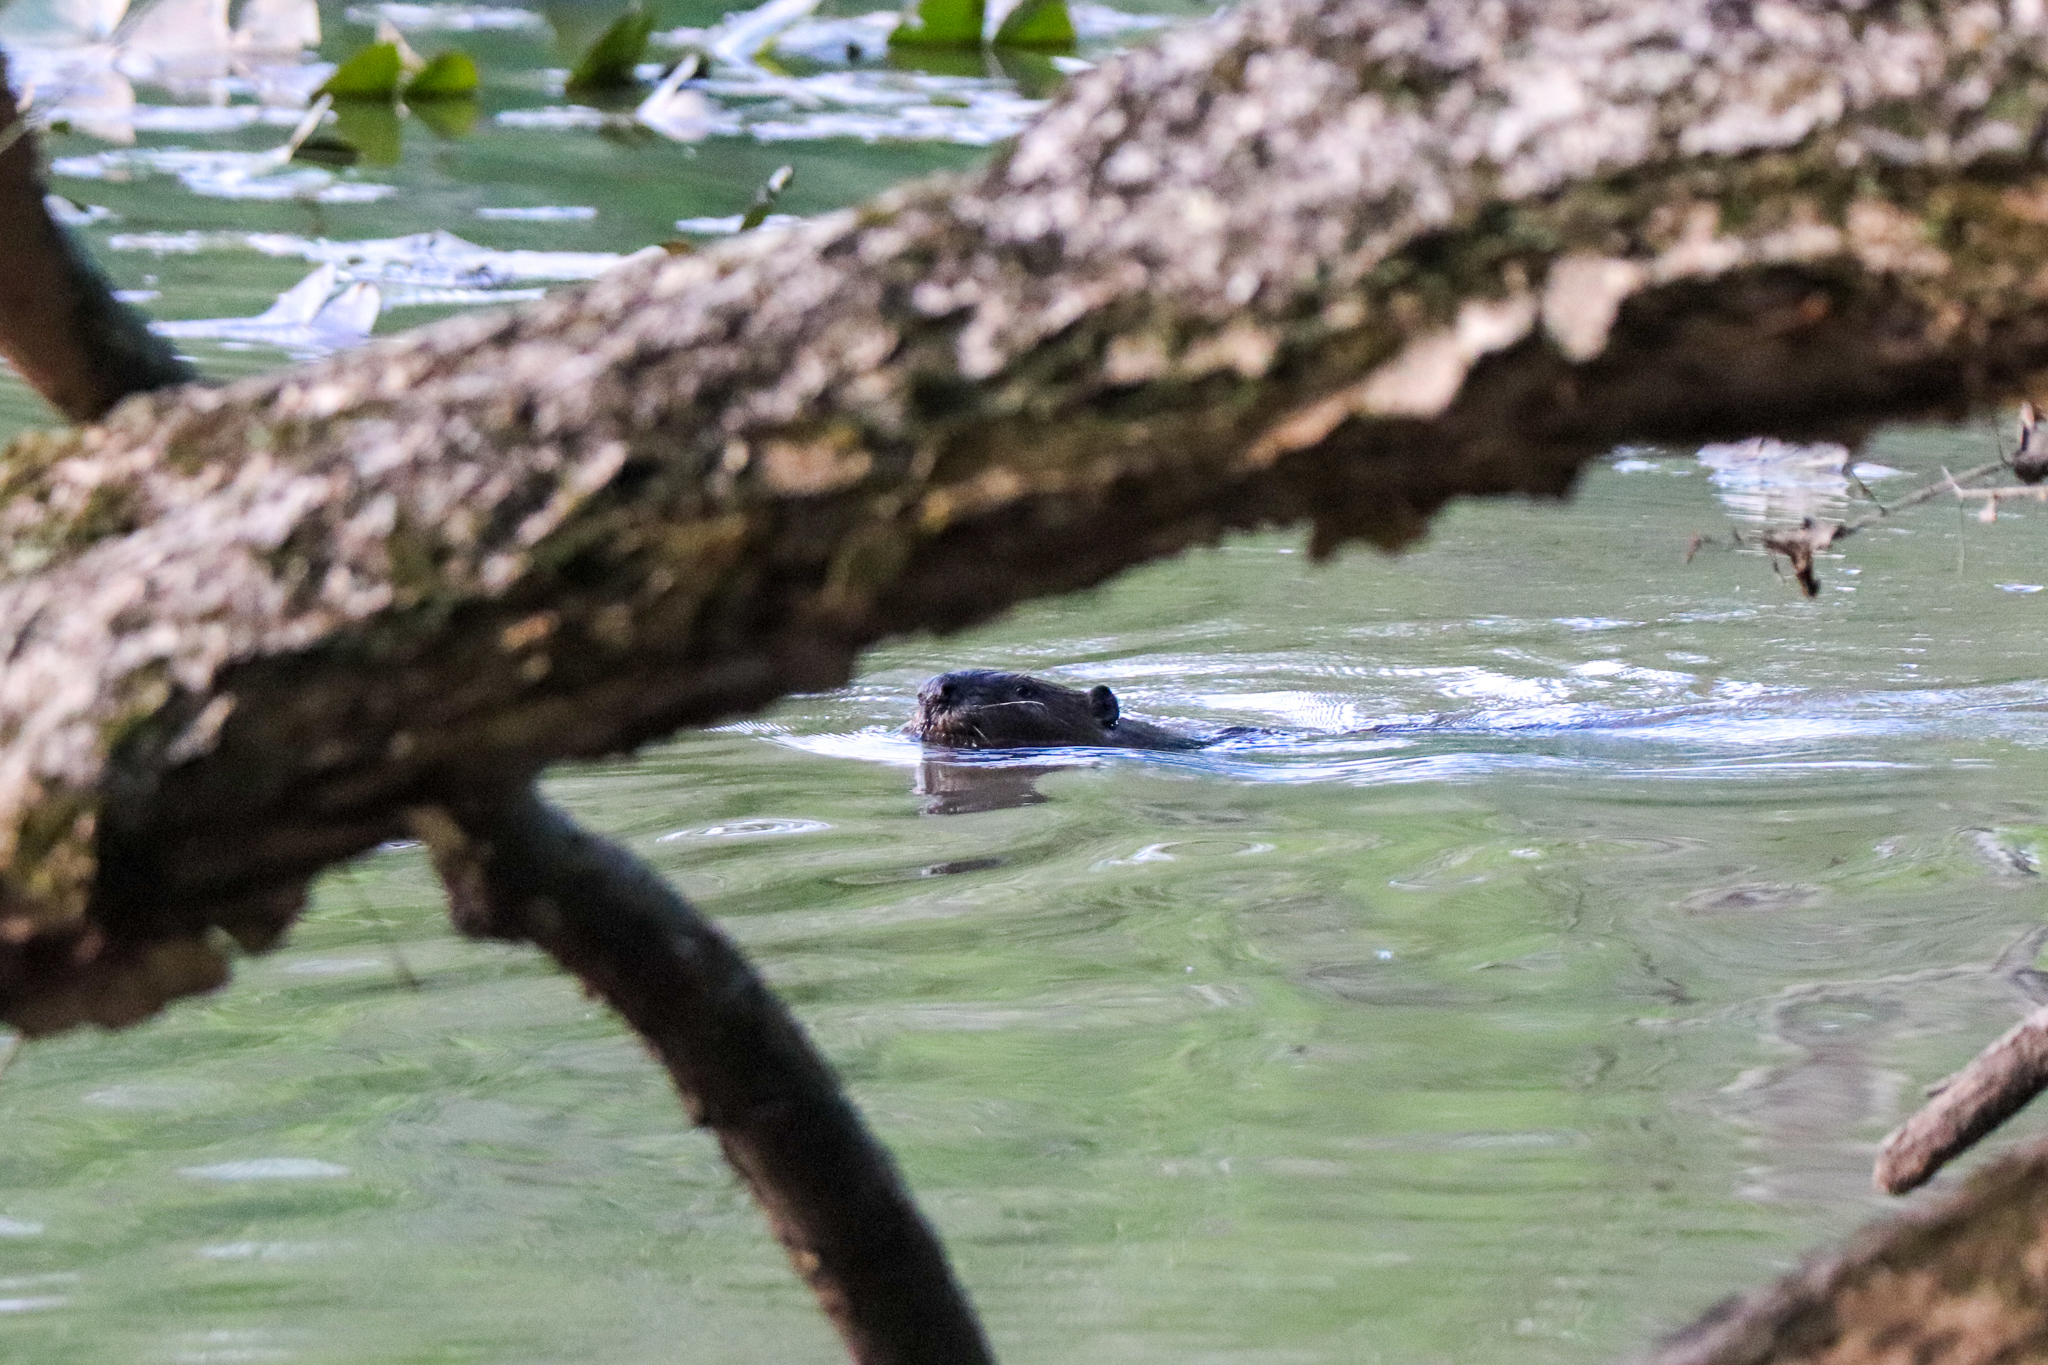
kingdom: Animalia
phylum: Chordata
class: Mammalia
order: Rodentia
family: Castoridae
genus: Castor
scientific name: Castor canadensis
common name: American beaver
